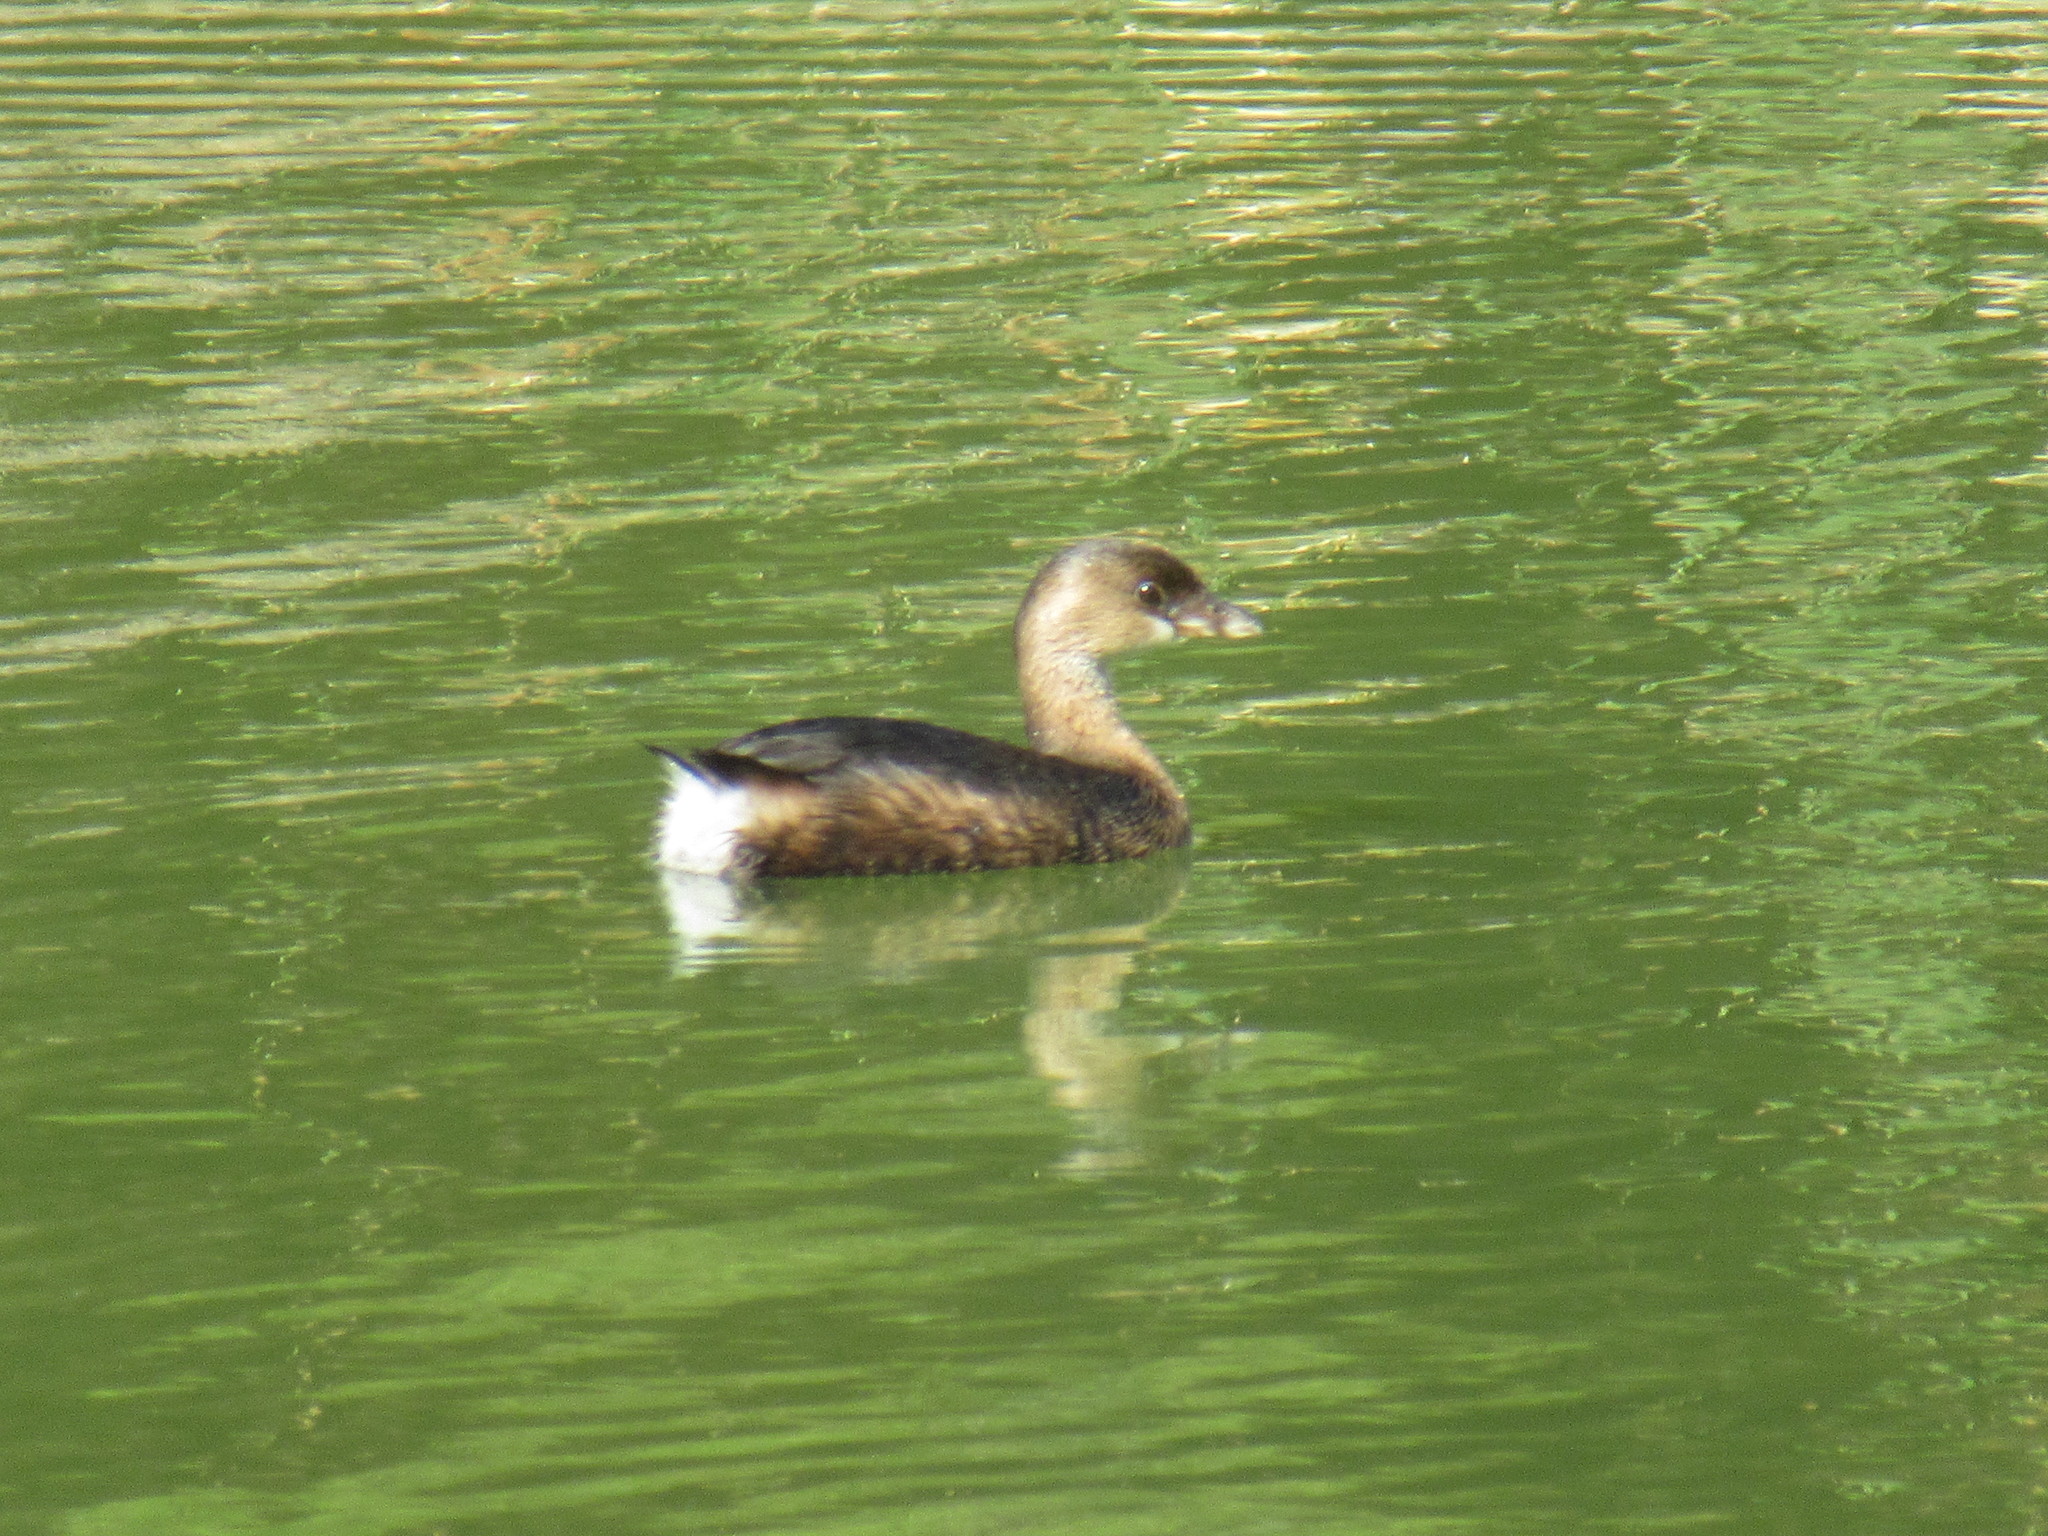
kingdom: Animalia
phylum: Chordata
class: Aves
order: Podicipediformes
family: Podicipedidae
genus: Podilymbus
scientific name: Podilymbus podiceps
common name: Pied-billed grebe
